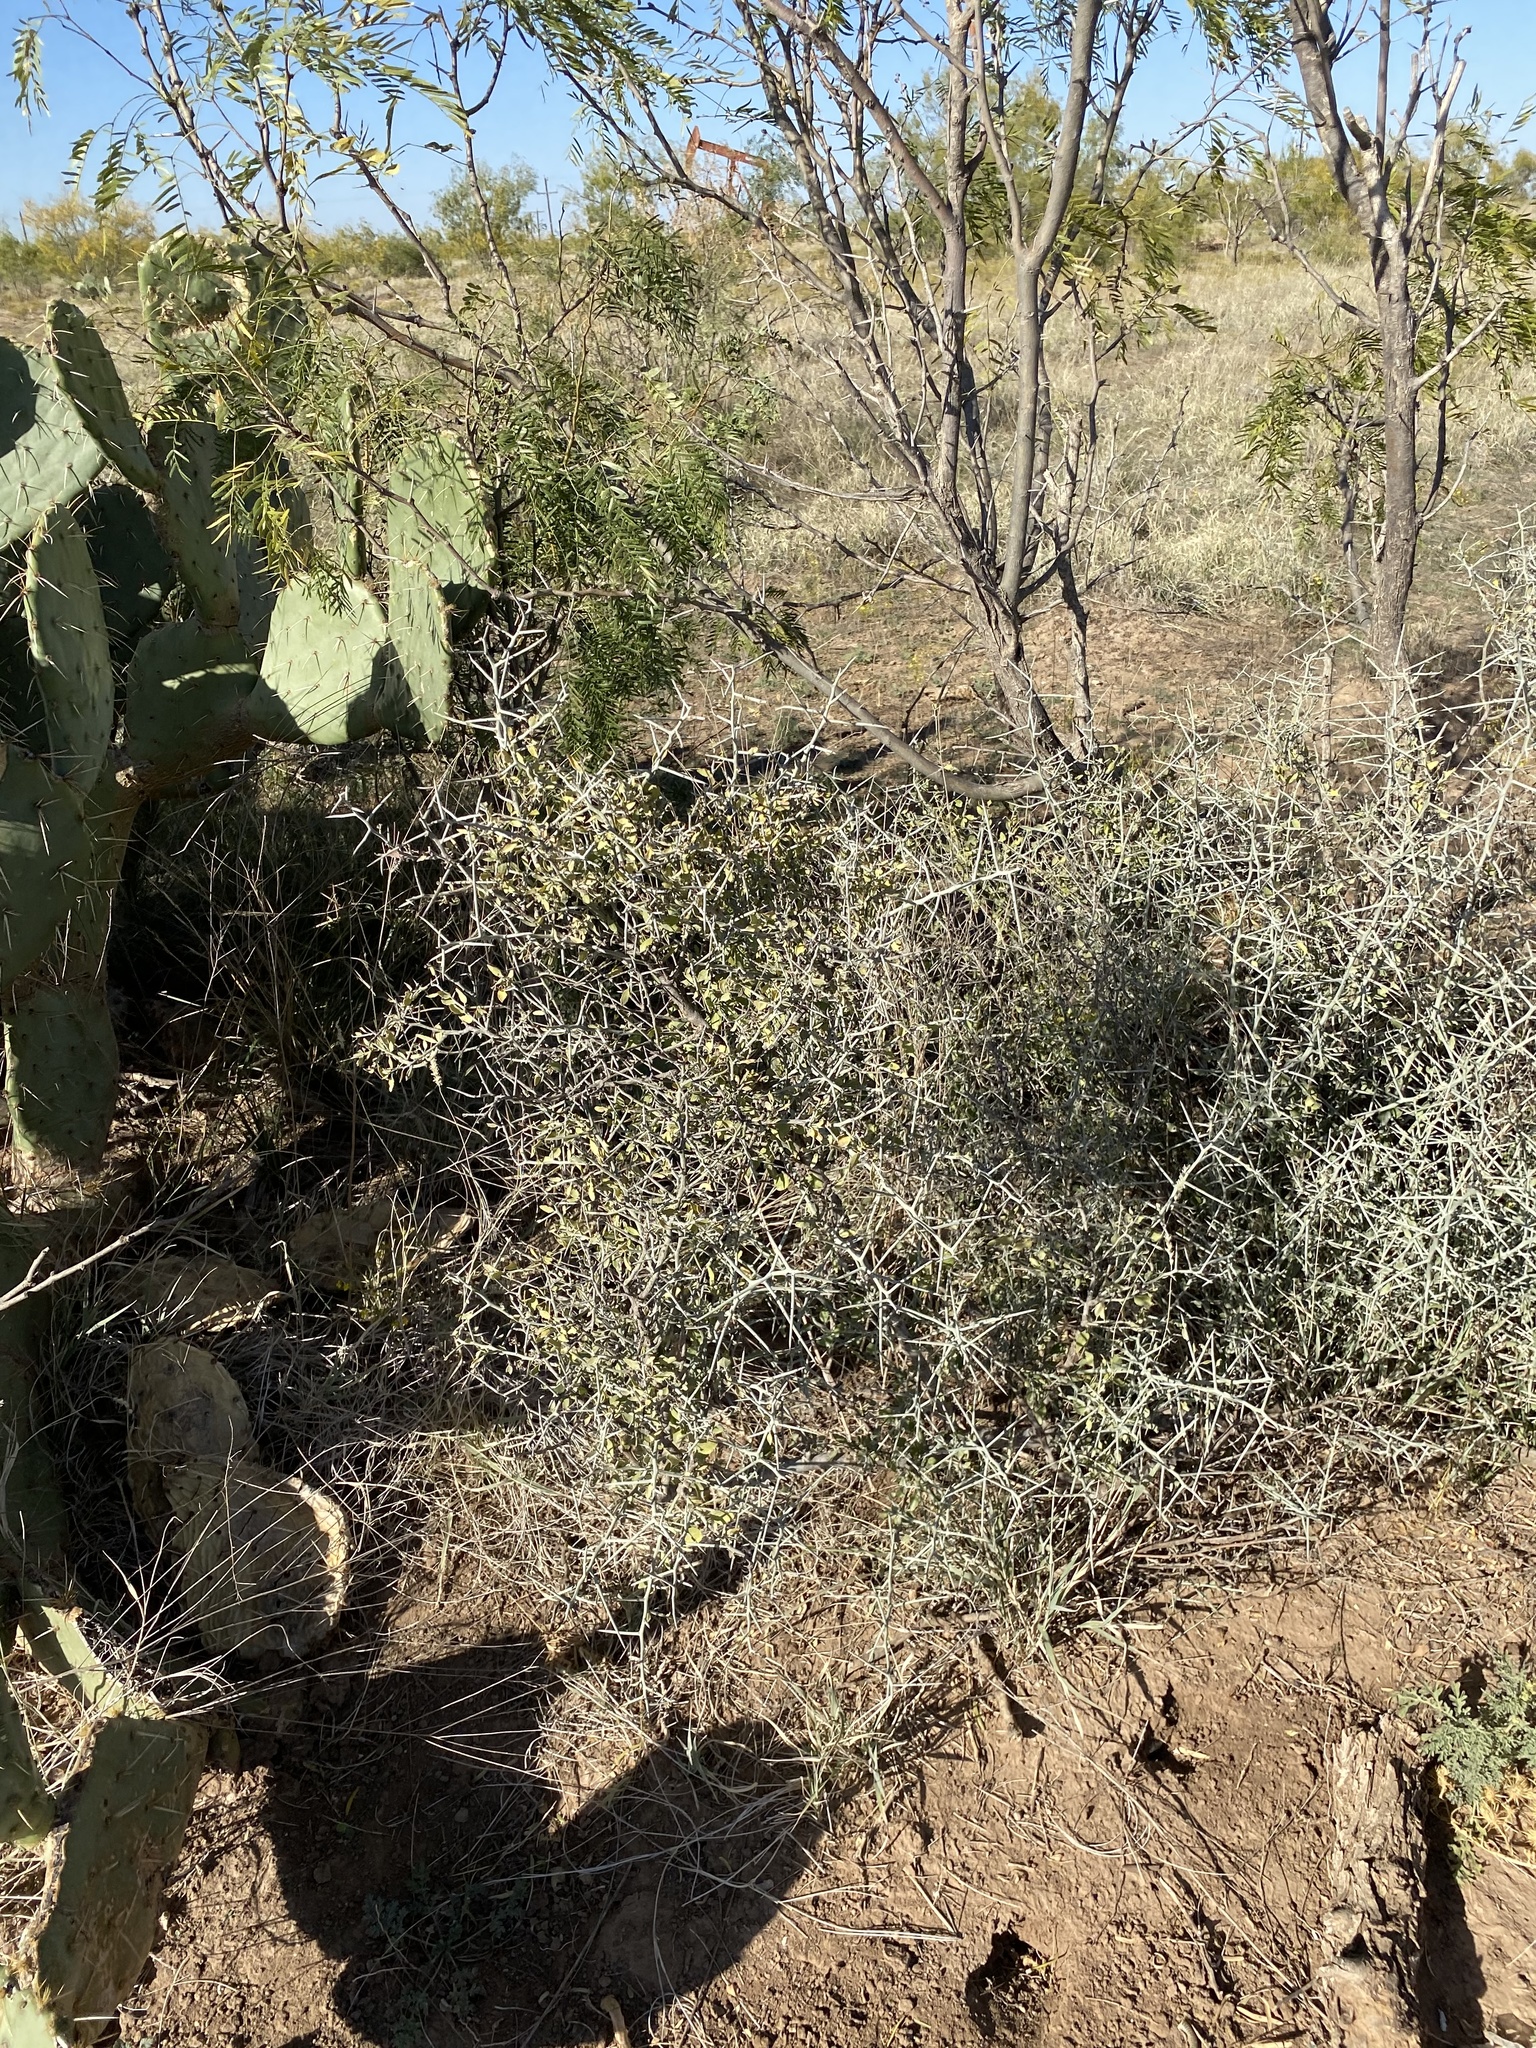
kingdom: Plantae
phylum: Tracheophyta
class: Magnoliopsida
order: Rosales
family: Rhamnaceae
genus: Sarcomphalus
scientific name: Sarcomphalus obtusifolius
